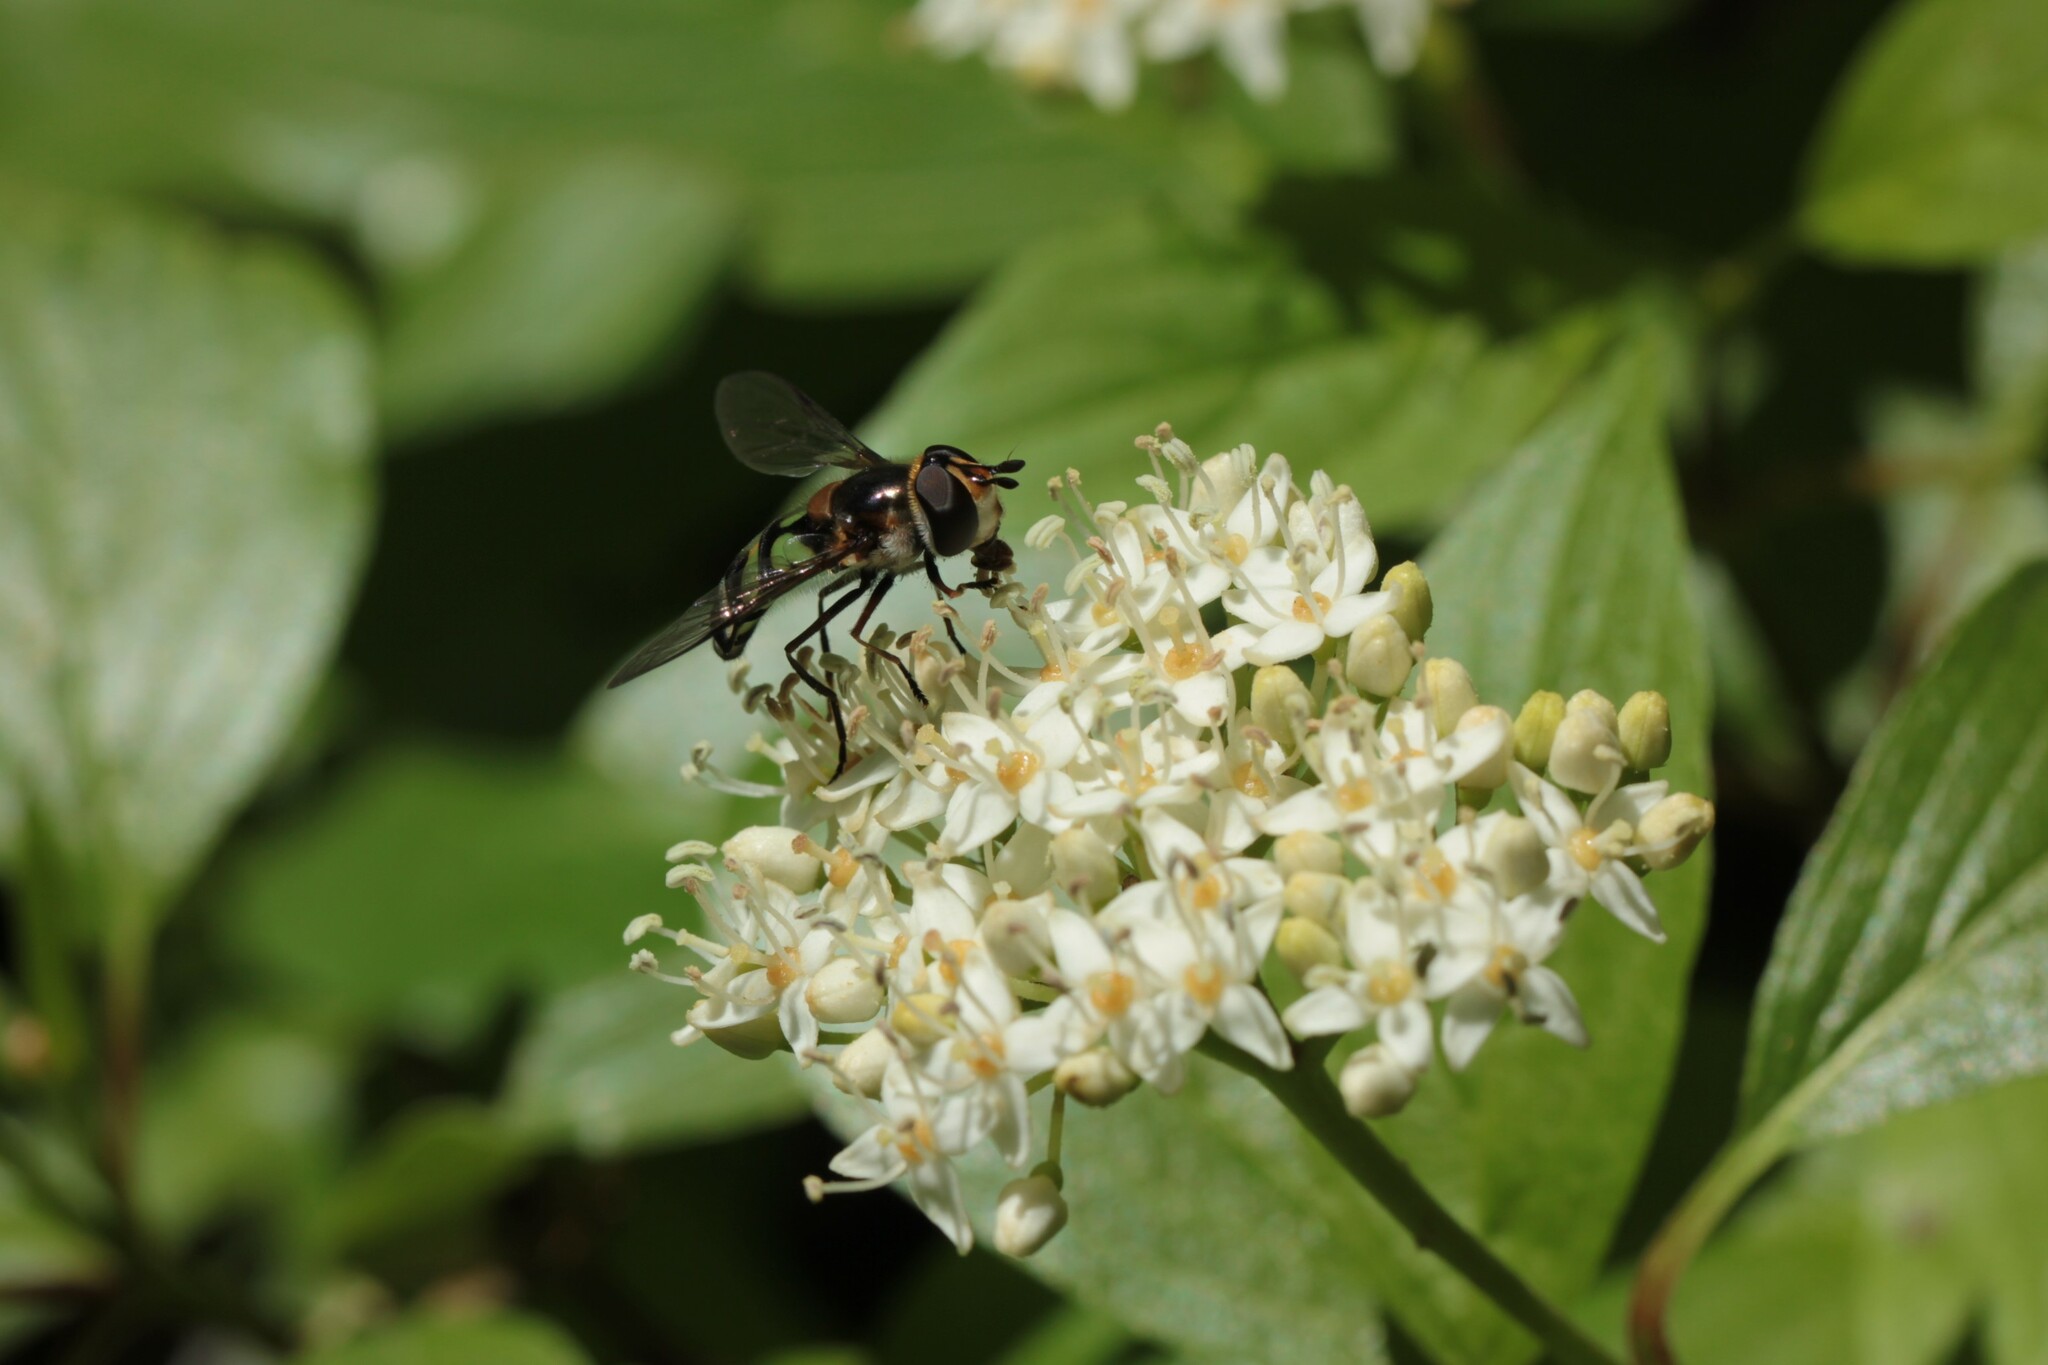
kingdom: Animalia
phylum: Arthropoda
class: Insecta
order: Diptera
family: Syrphidae
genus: Didea
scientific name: Didea fuscipes
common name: Undivided lucent
